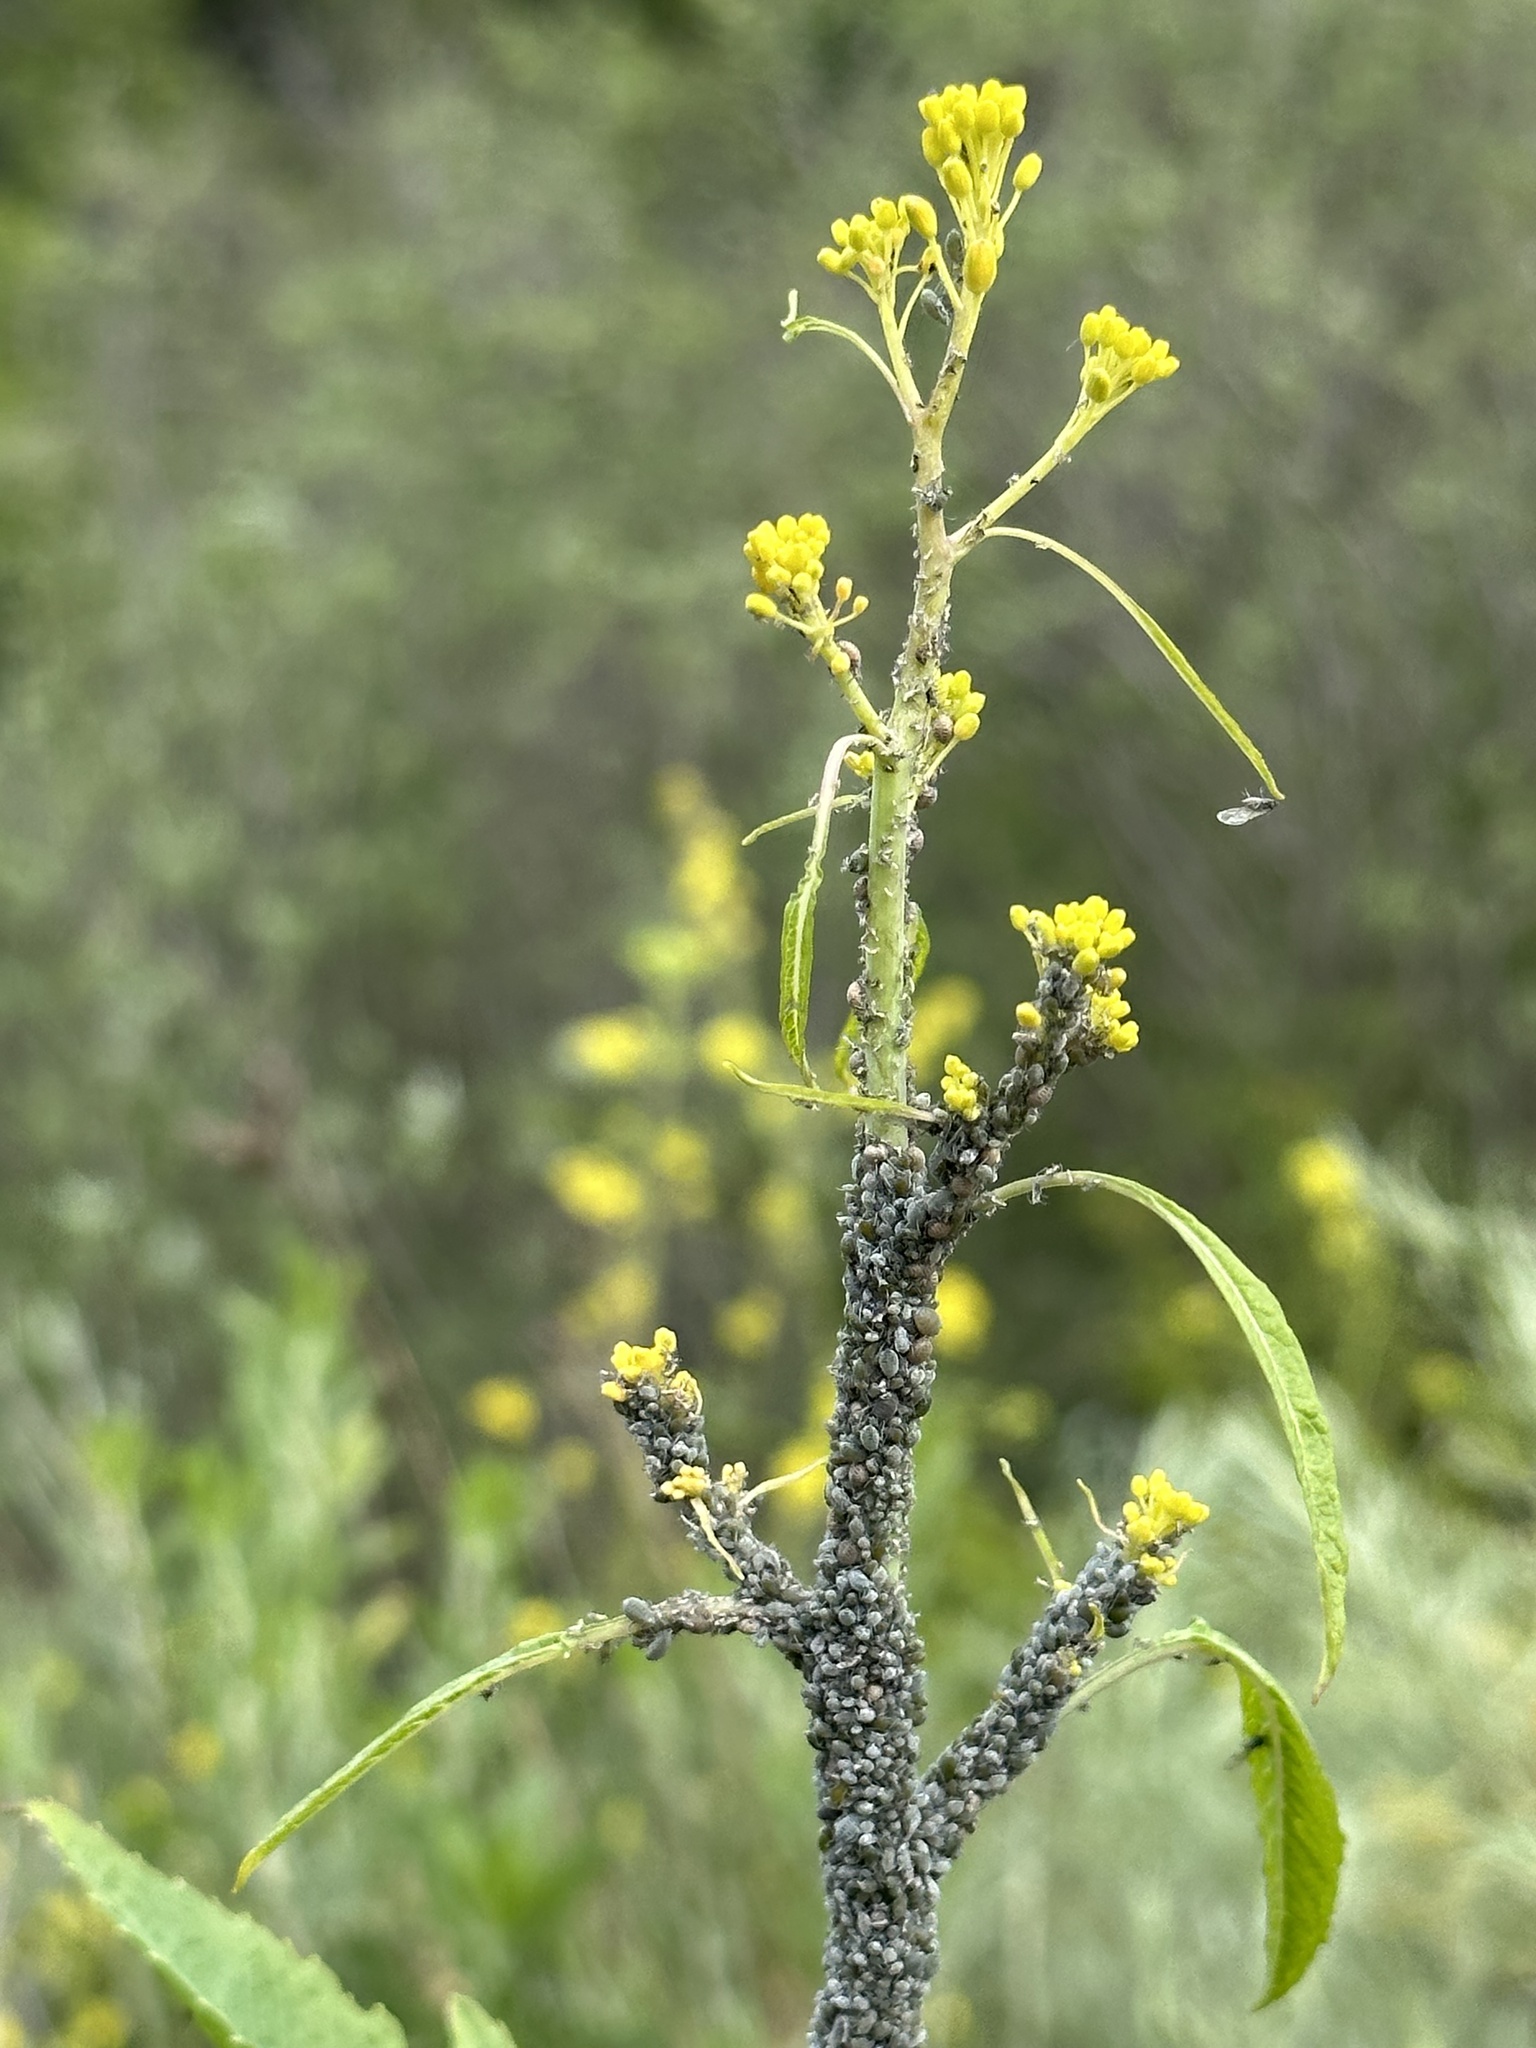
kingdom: Animalia
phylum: Arthropoda
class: Insecta
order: Hemiptera
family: Aphididae
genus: Brevicoryne
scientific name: Brevicoryne brassicae
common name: Cabbage aphid
